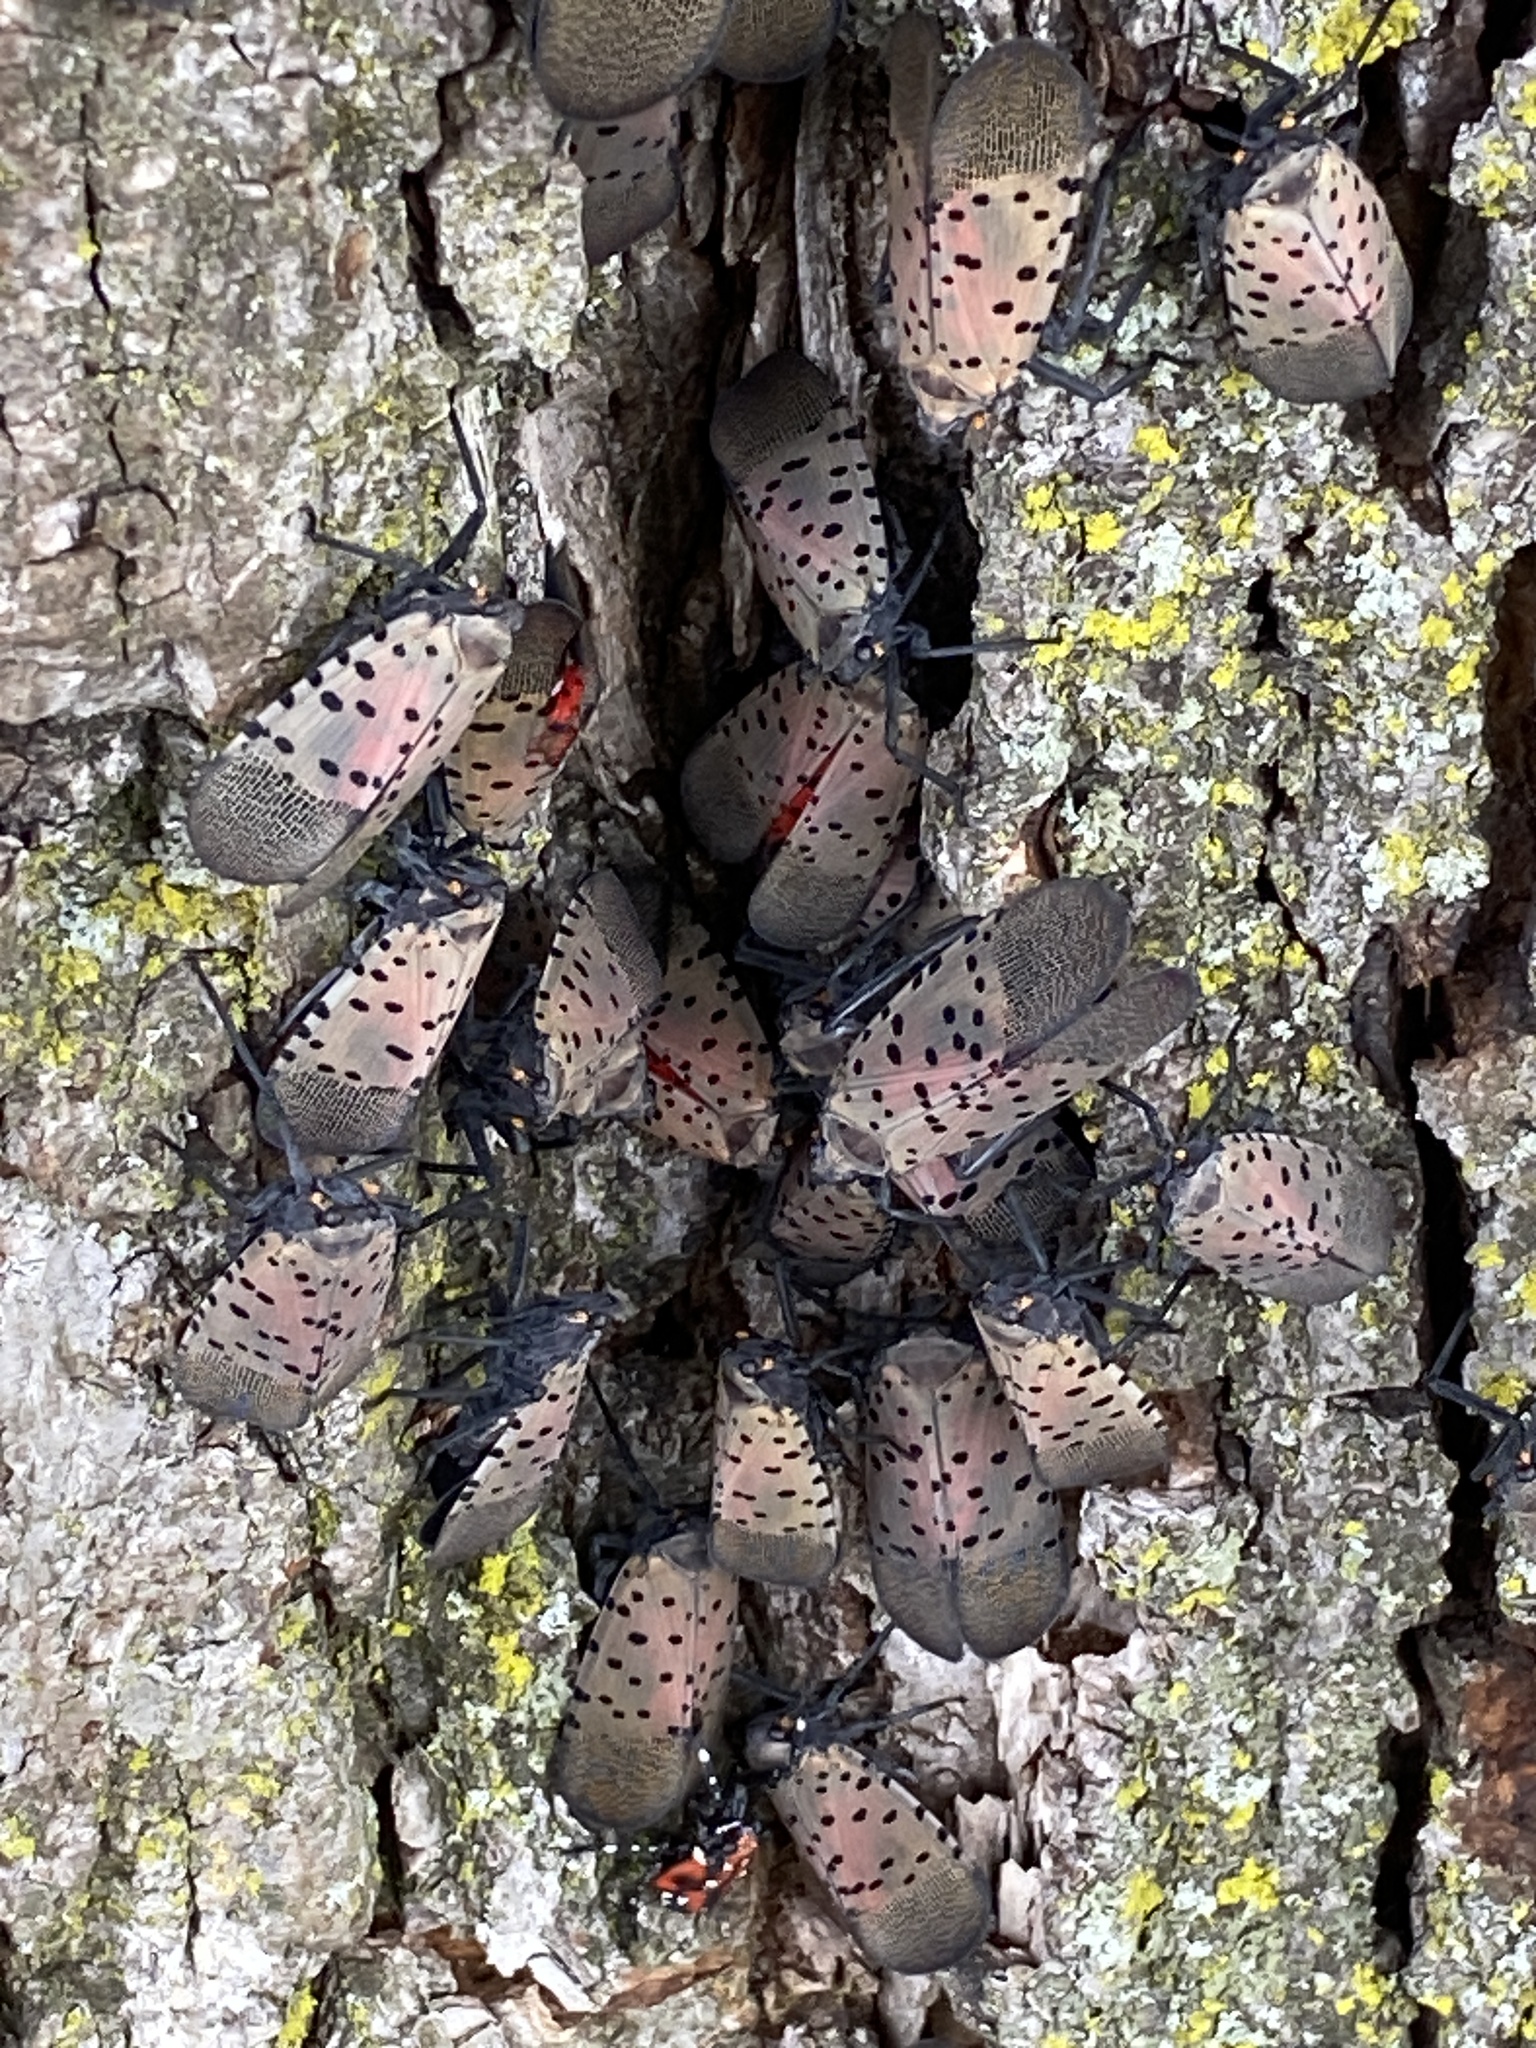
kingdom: Animalia
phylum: Arthropoda
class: Insecta
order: Hemiptera
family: Fulgoridae
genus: Lycorma
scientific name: Lycorma delicatula
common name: Spotted lanternfly
